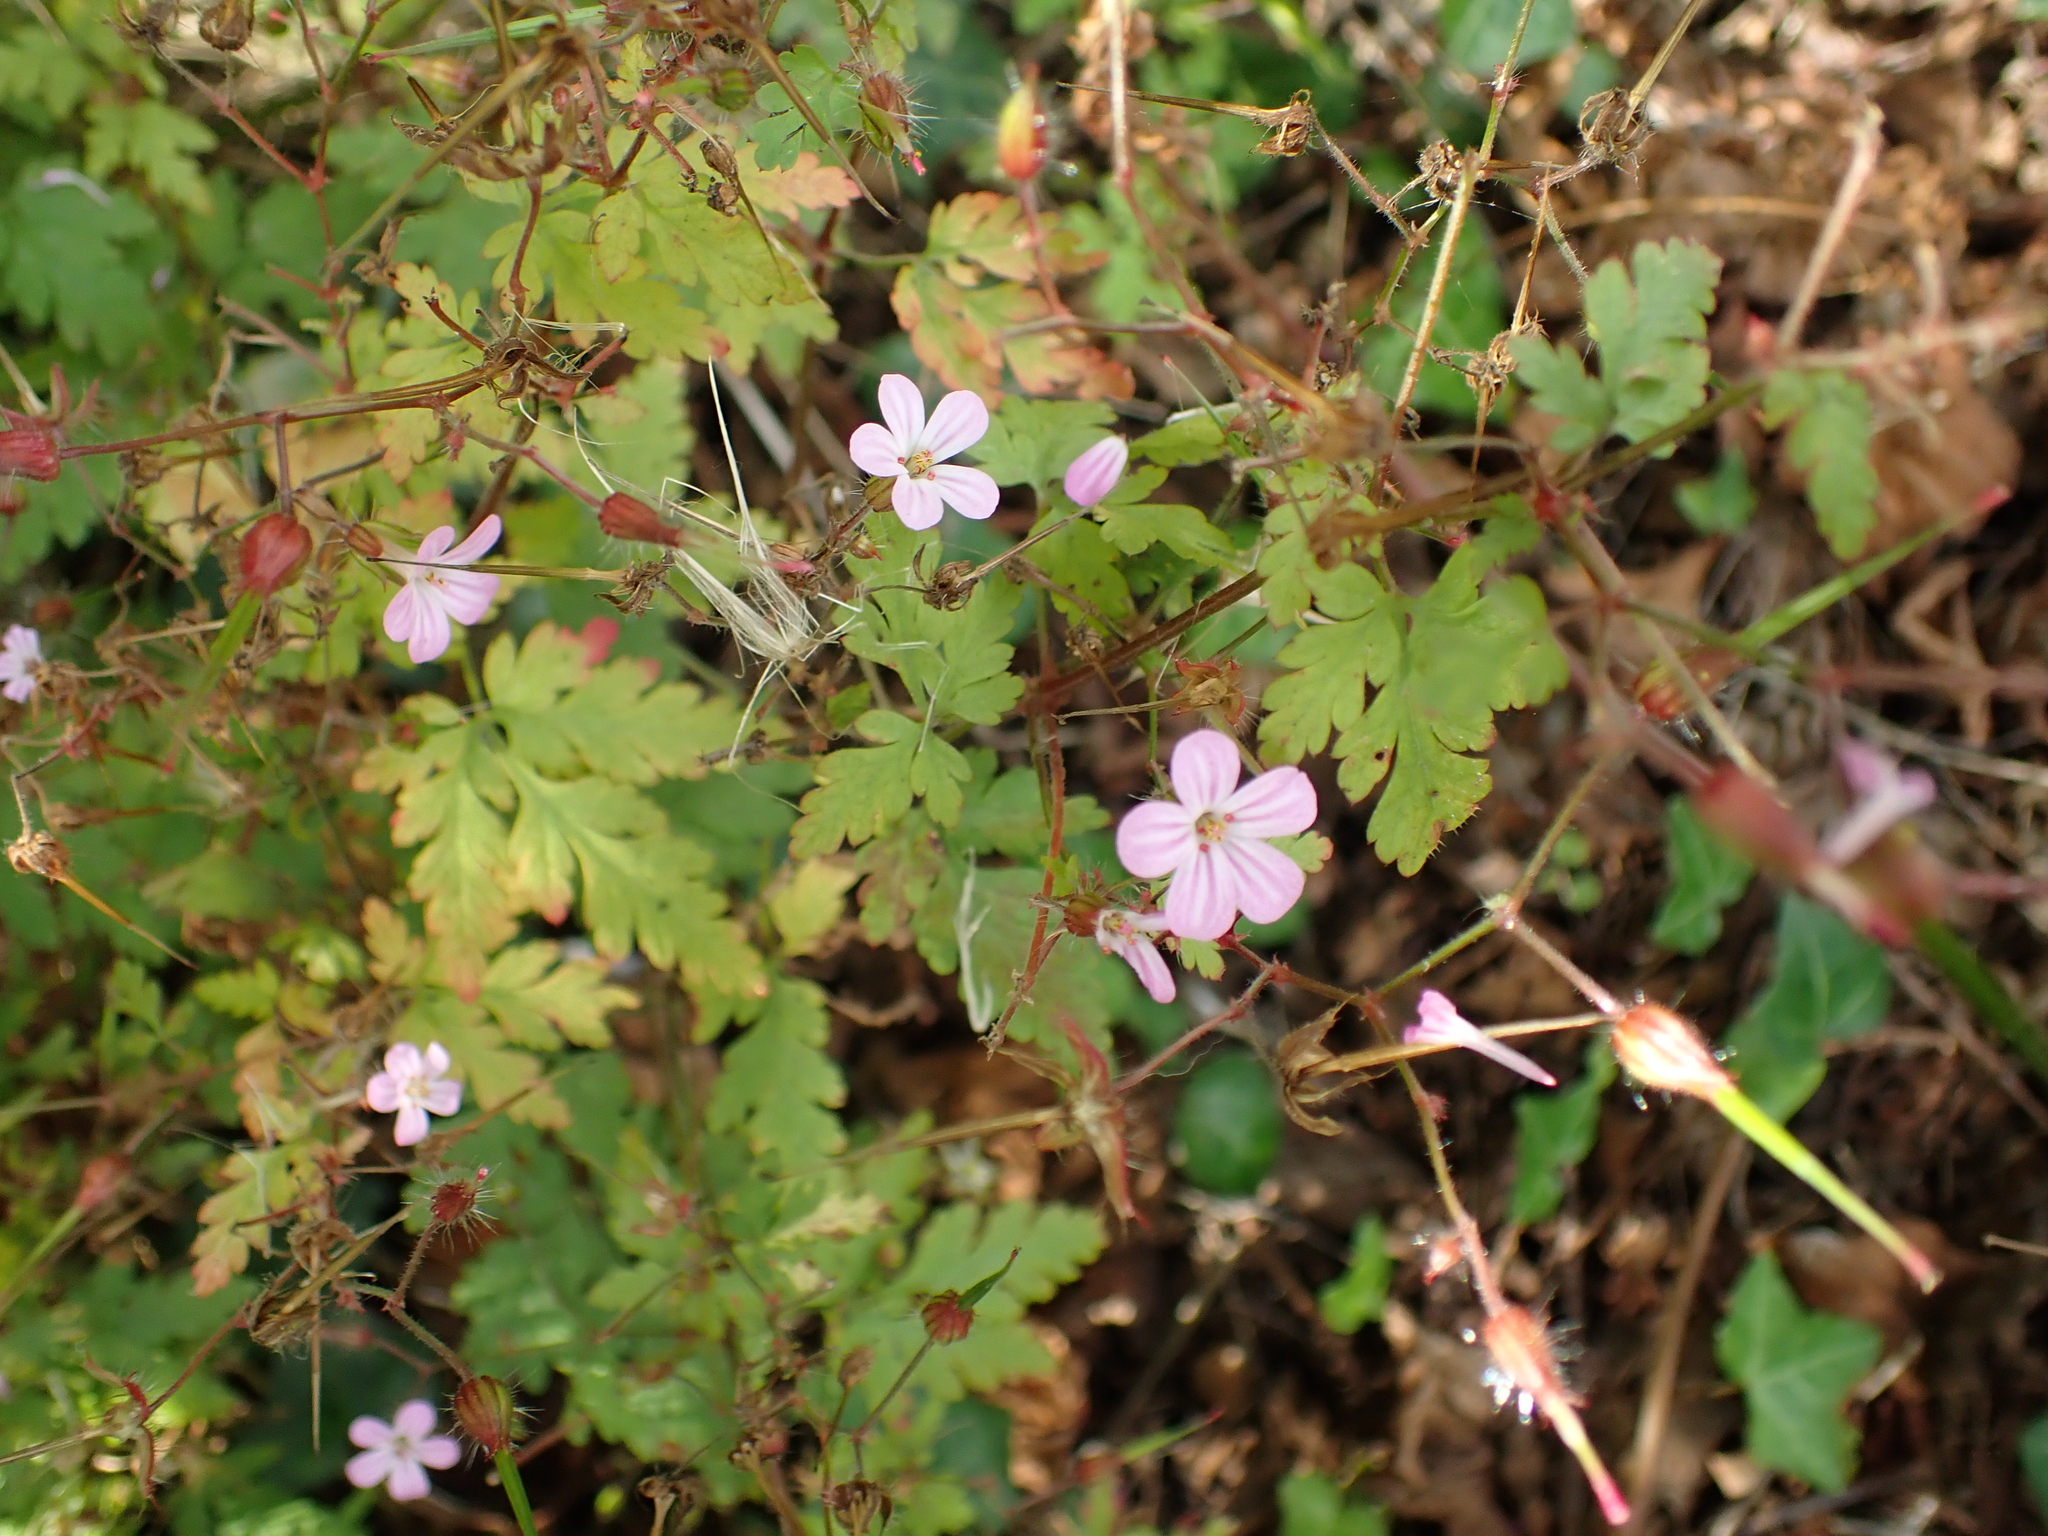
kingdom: Plantae
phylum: Tracheophyta
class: Magnoliopsida
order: Geraniales
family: Geraniaceae
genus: Geranium
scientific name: Geranium robertianum
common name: Herb-robert
